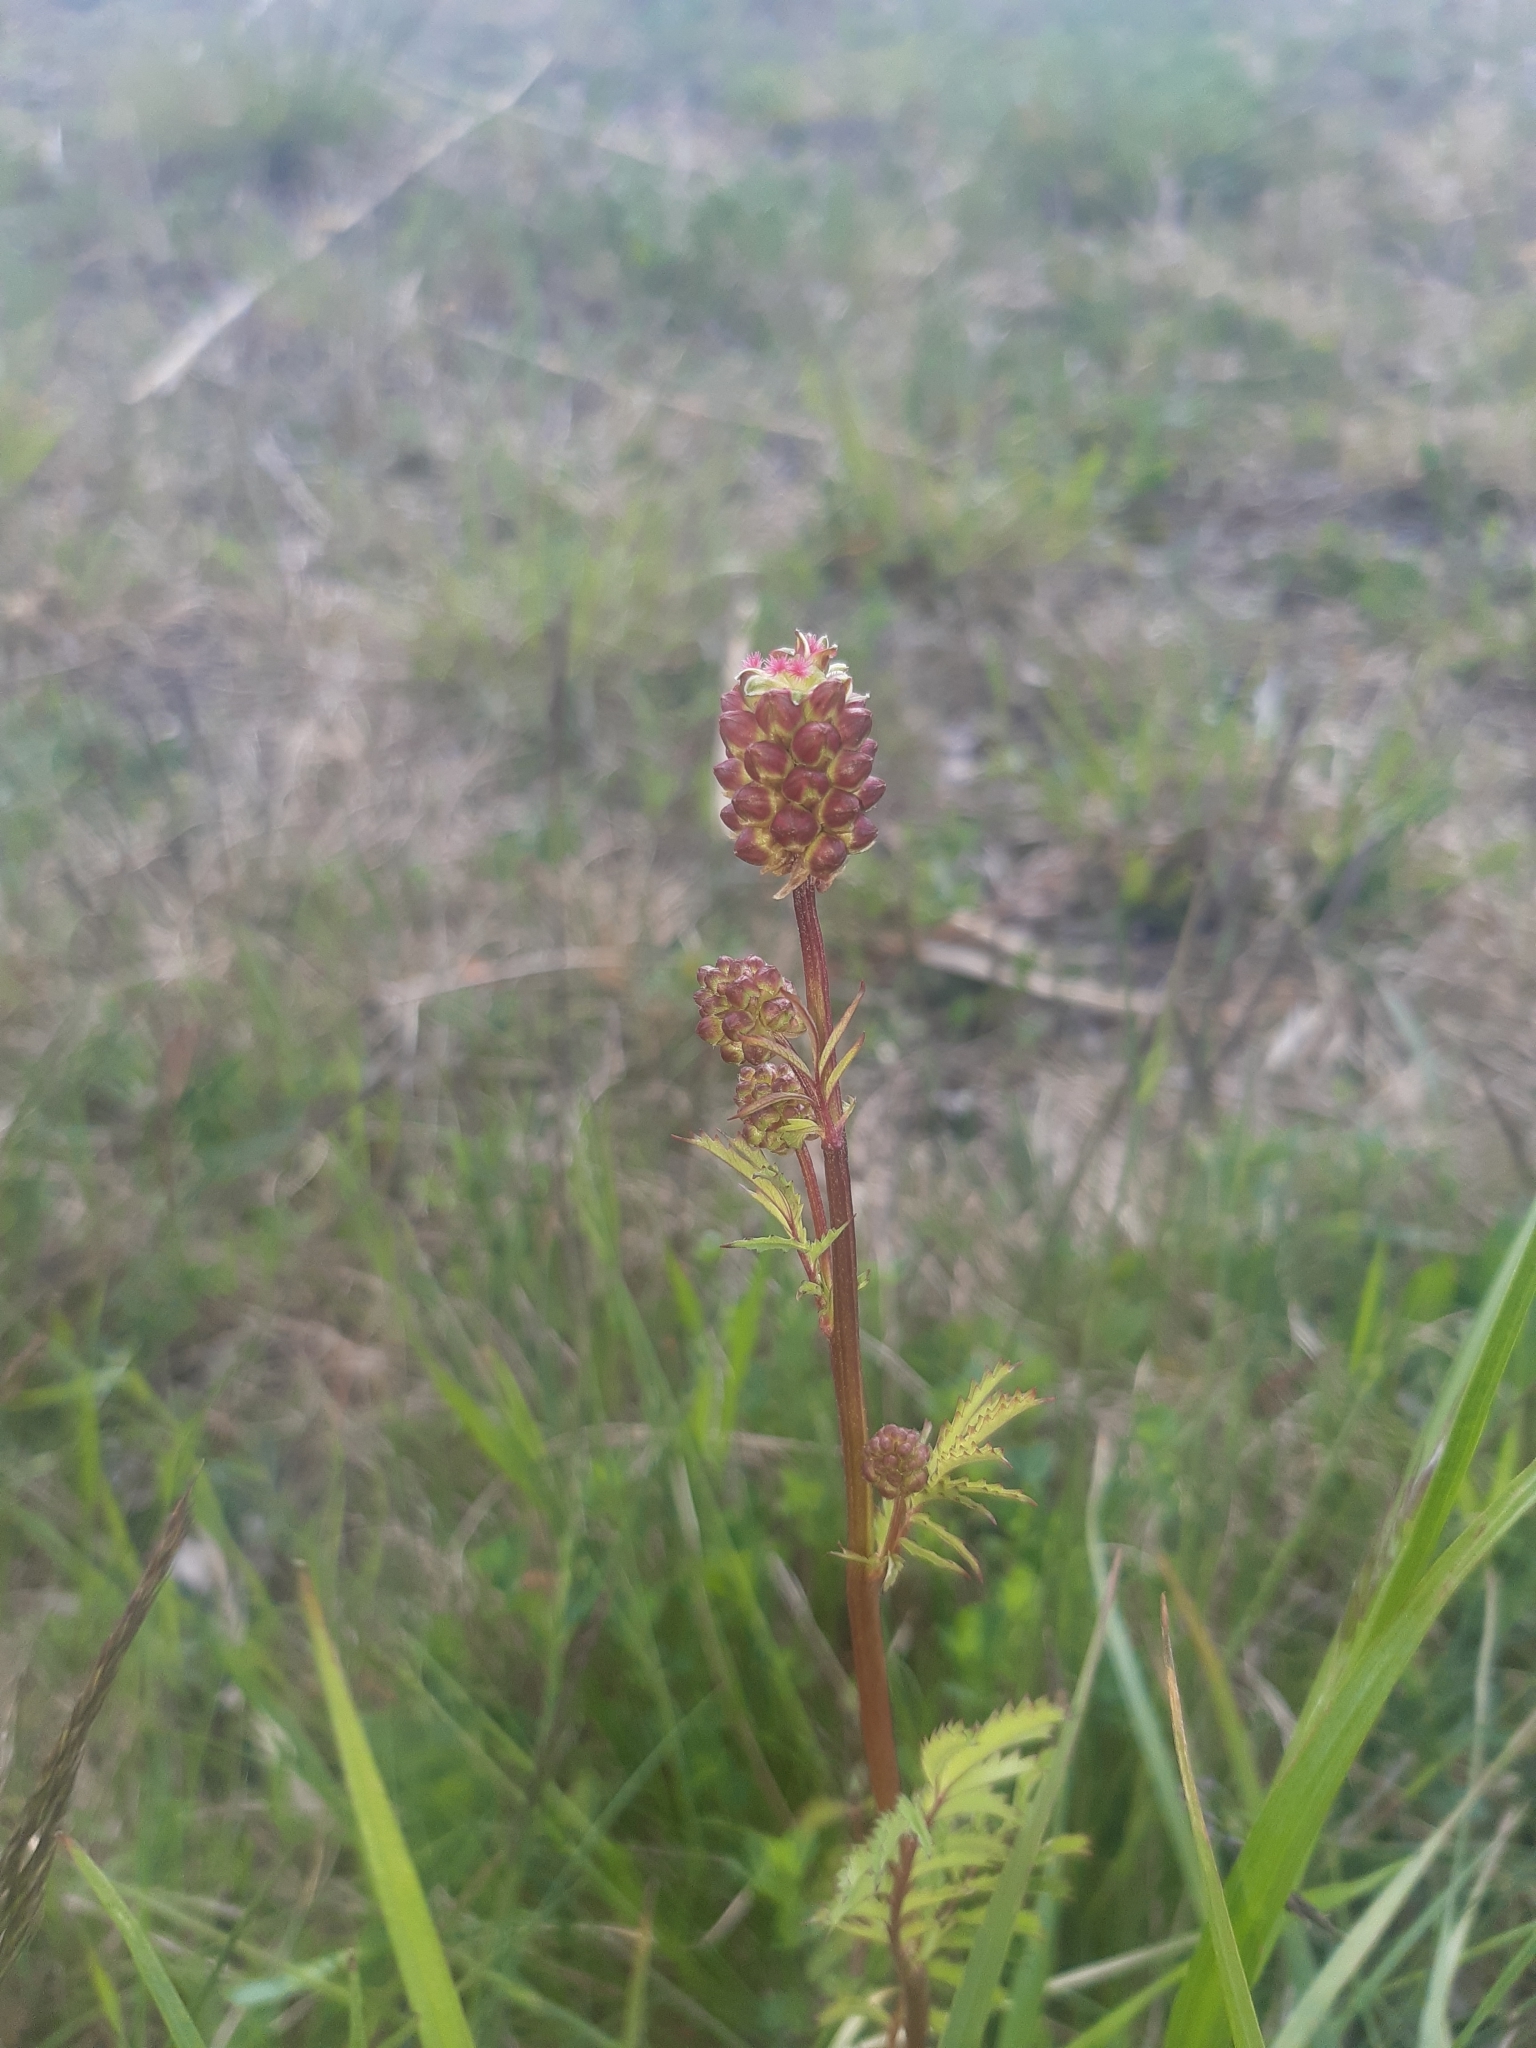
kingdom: Plantae
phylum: Tracheophyta
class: Magnoliopsida
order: Rosales
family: Rosaceae
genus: Poterium
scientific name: Poterium sanguisorba
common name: Salad burnet
